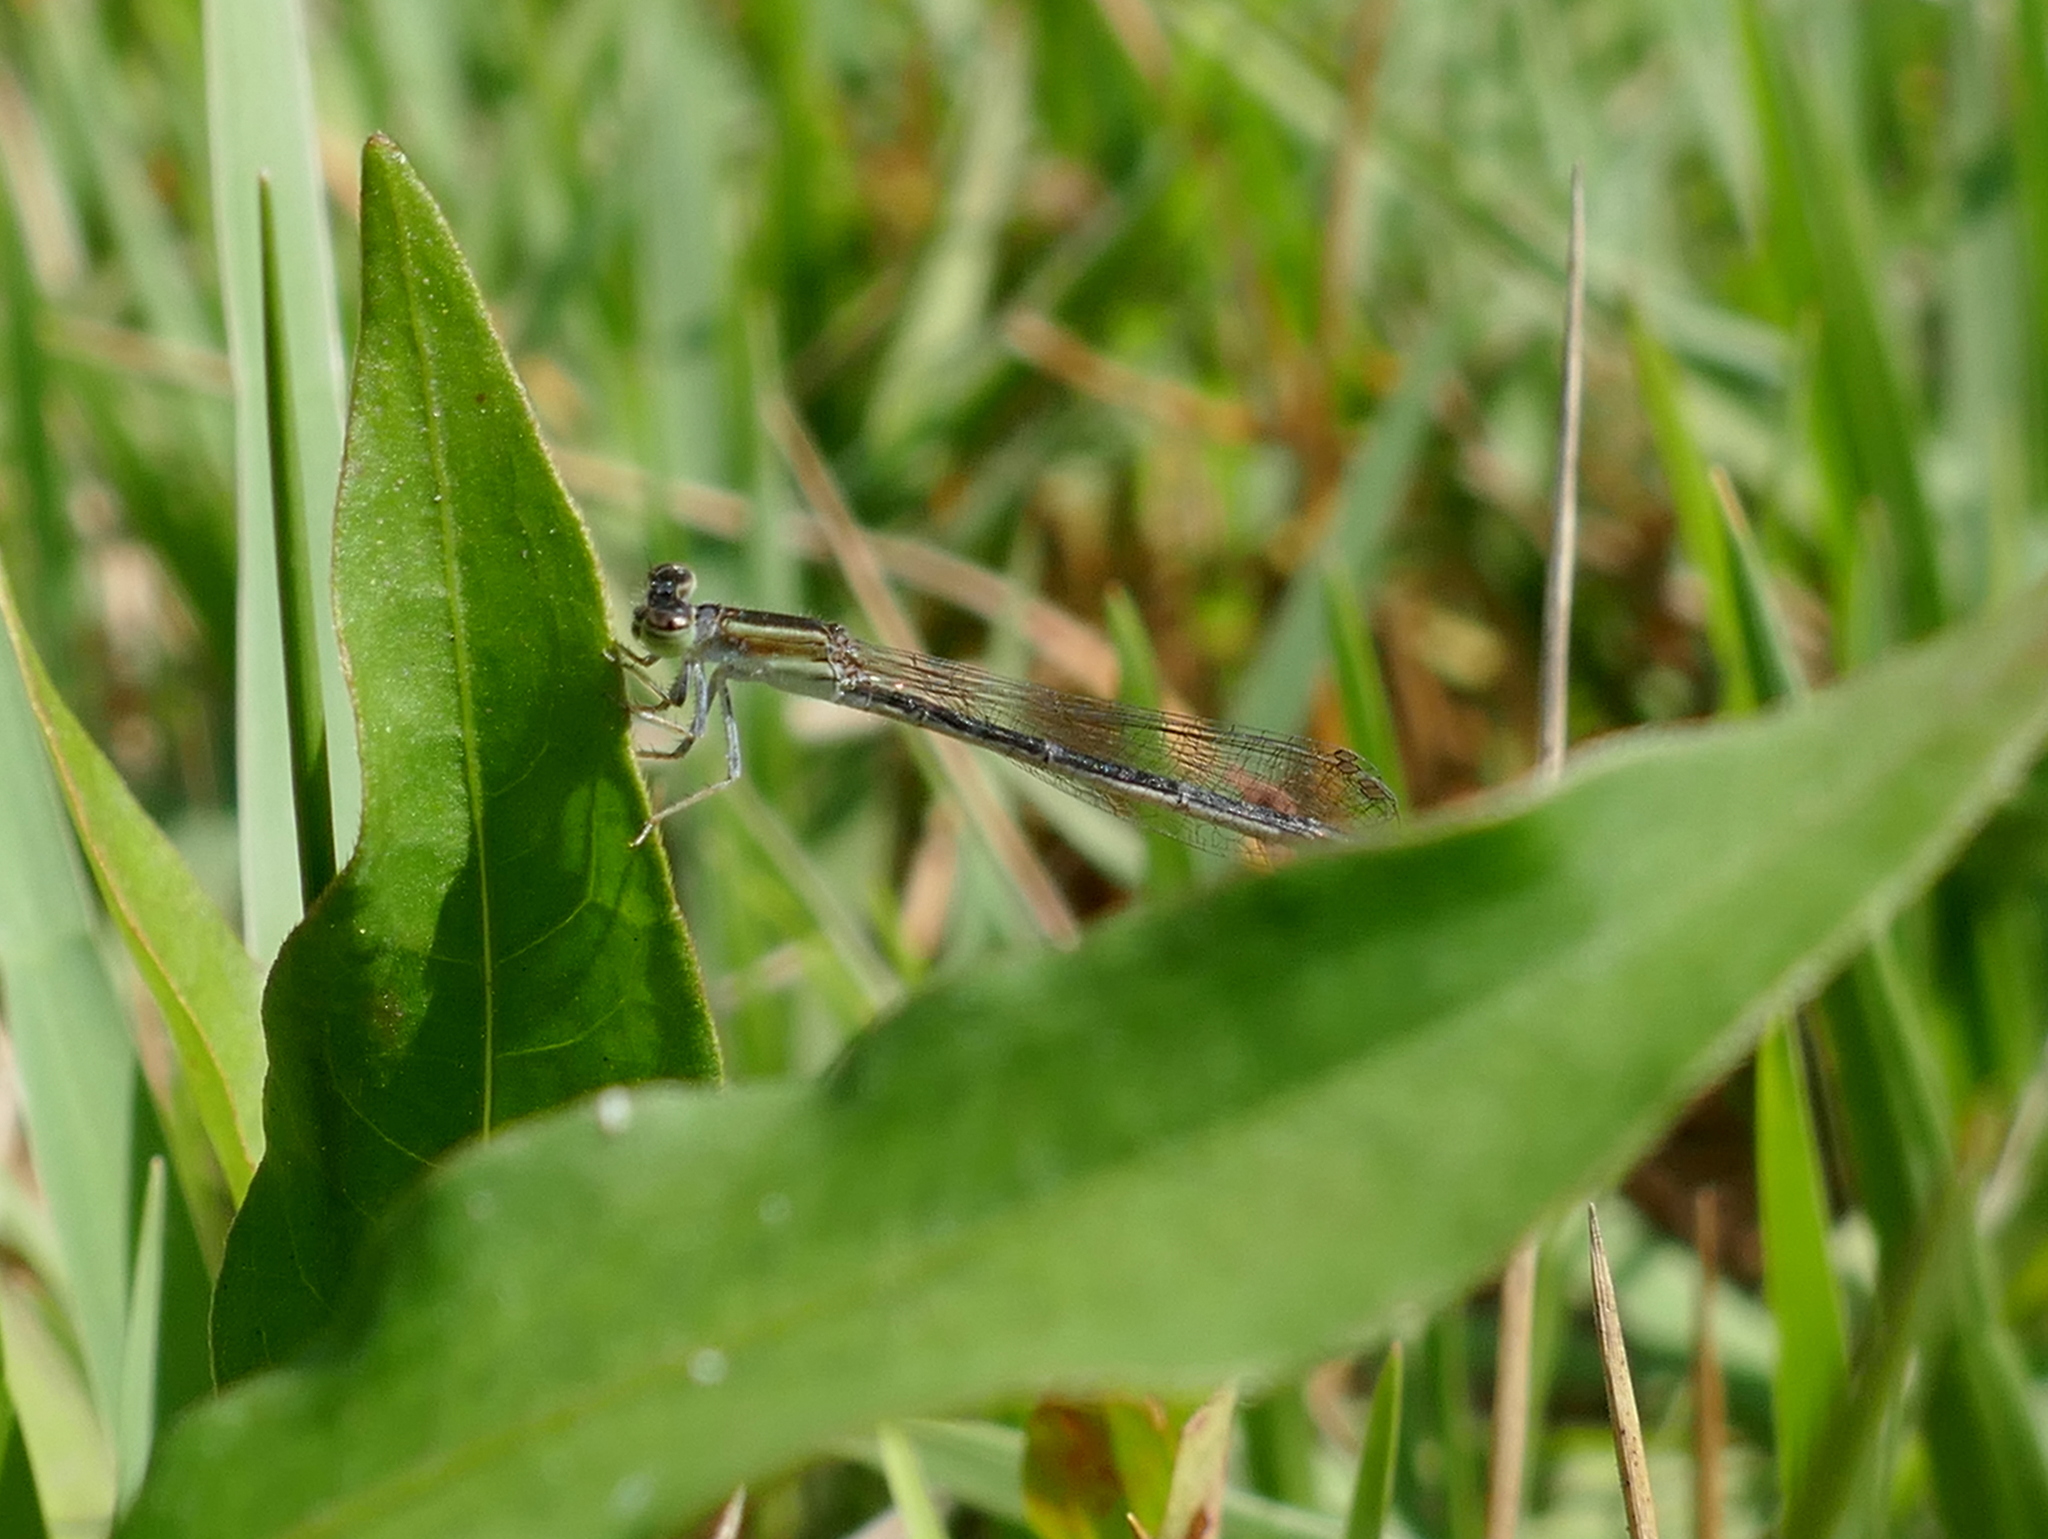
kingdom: Animalia
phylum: Arthropoda
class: Insecta
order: Odonata
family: Coenagrionidae
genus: Ischnura
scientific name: Ischnura hastata
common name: Citrine forktail
